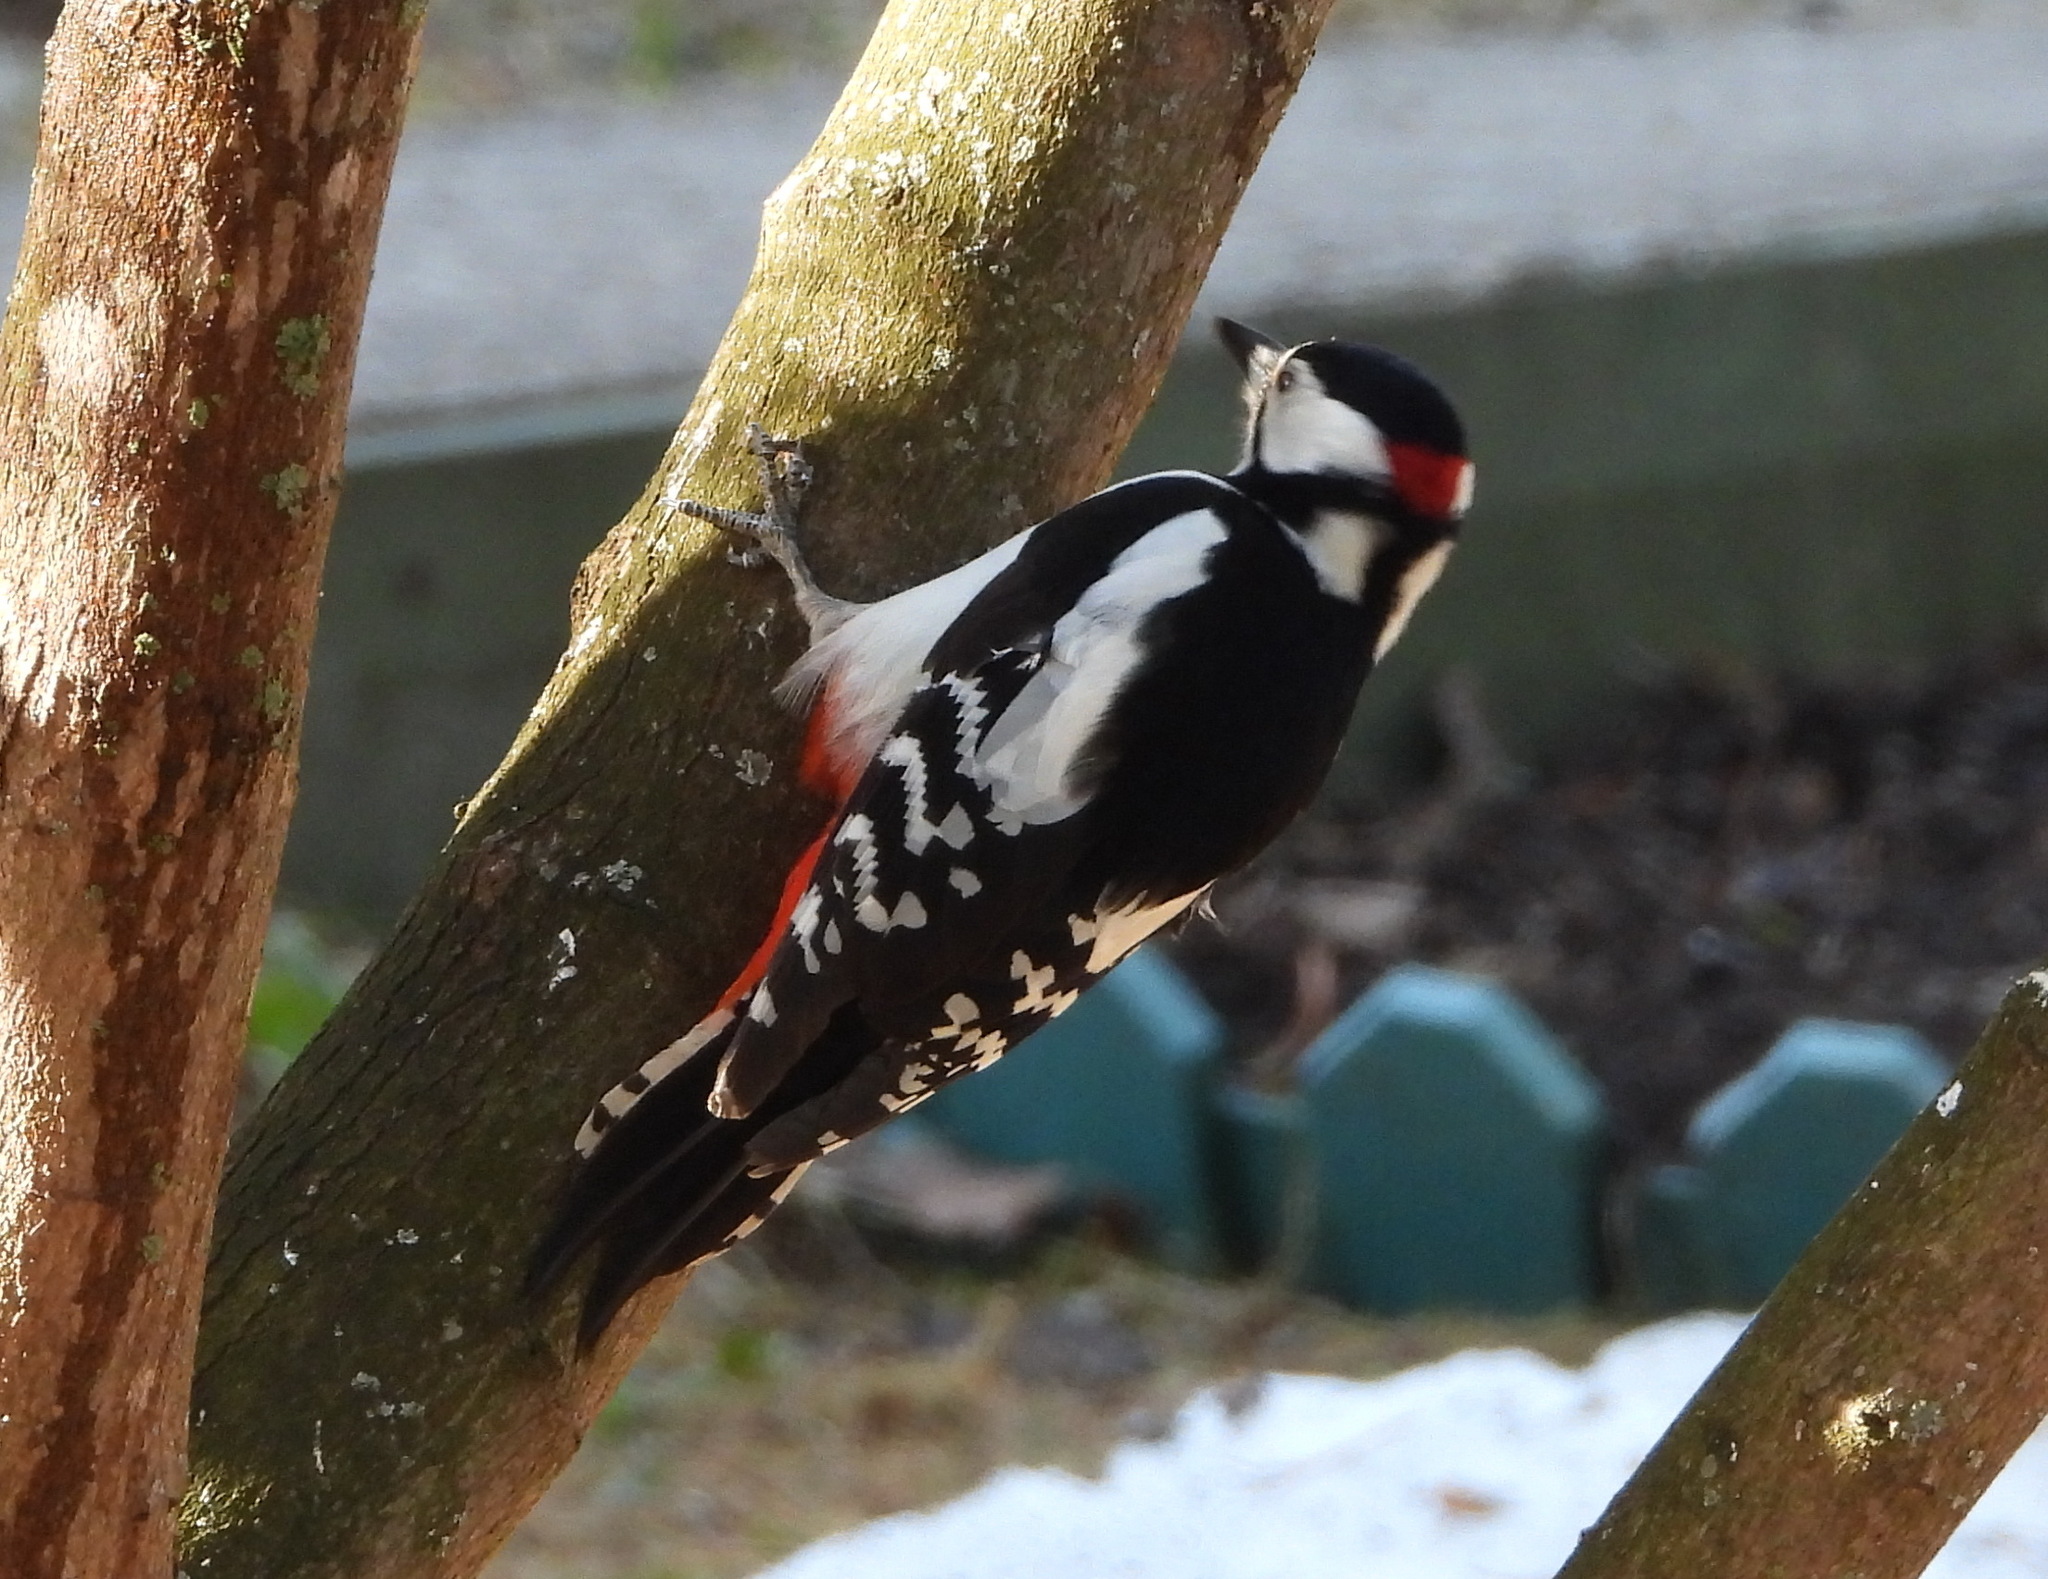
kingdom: Animalia
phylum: Chordata
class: Aves
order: Piciformes
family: Picidae
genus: Dendrocopos
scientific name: Dendrocopos major
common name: Great spotted woodpecker
